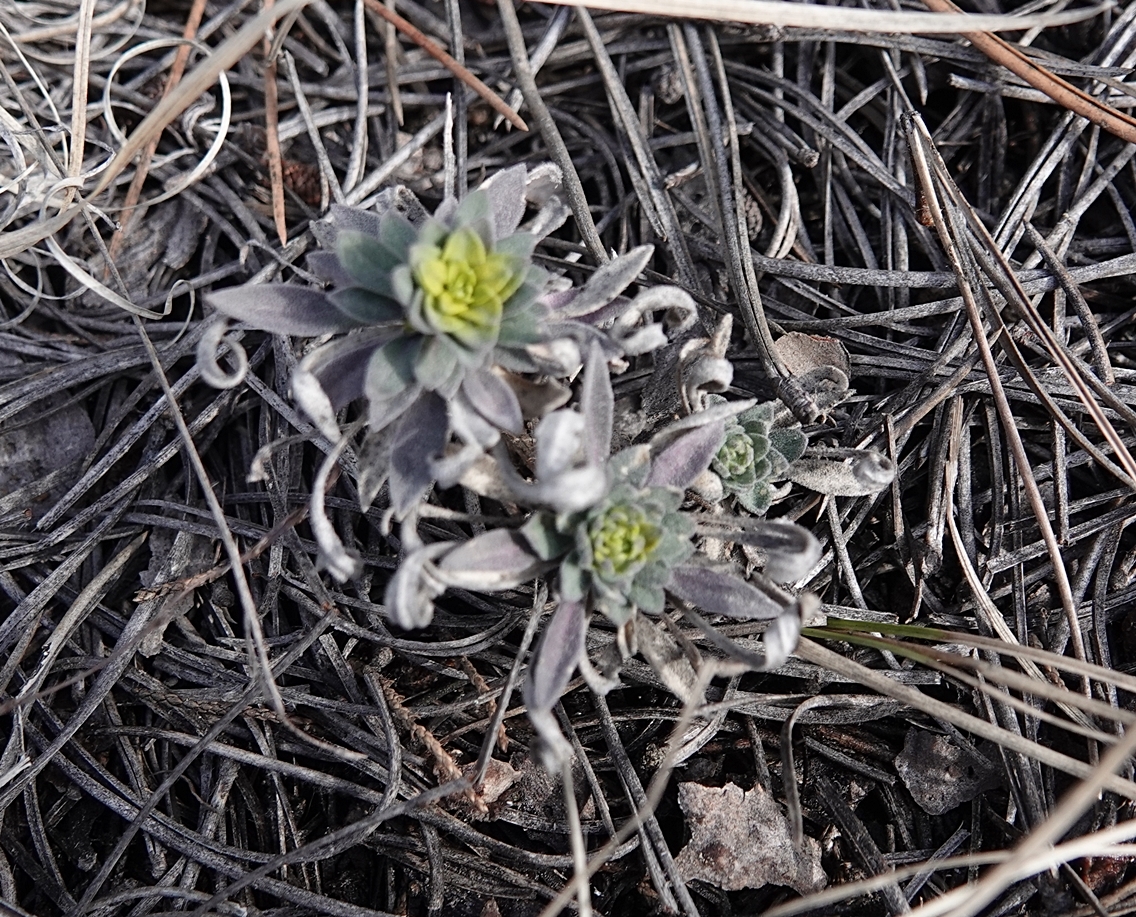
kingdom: Fungi
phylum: Basidiomycota
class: Pucciniomycetes
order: Pucciniales
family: Pucciniaceae
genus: Puccinia
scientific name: Puccinia monoica
